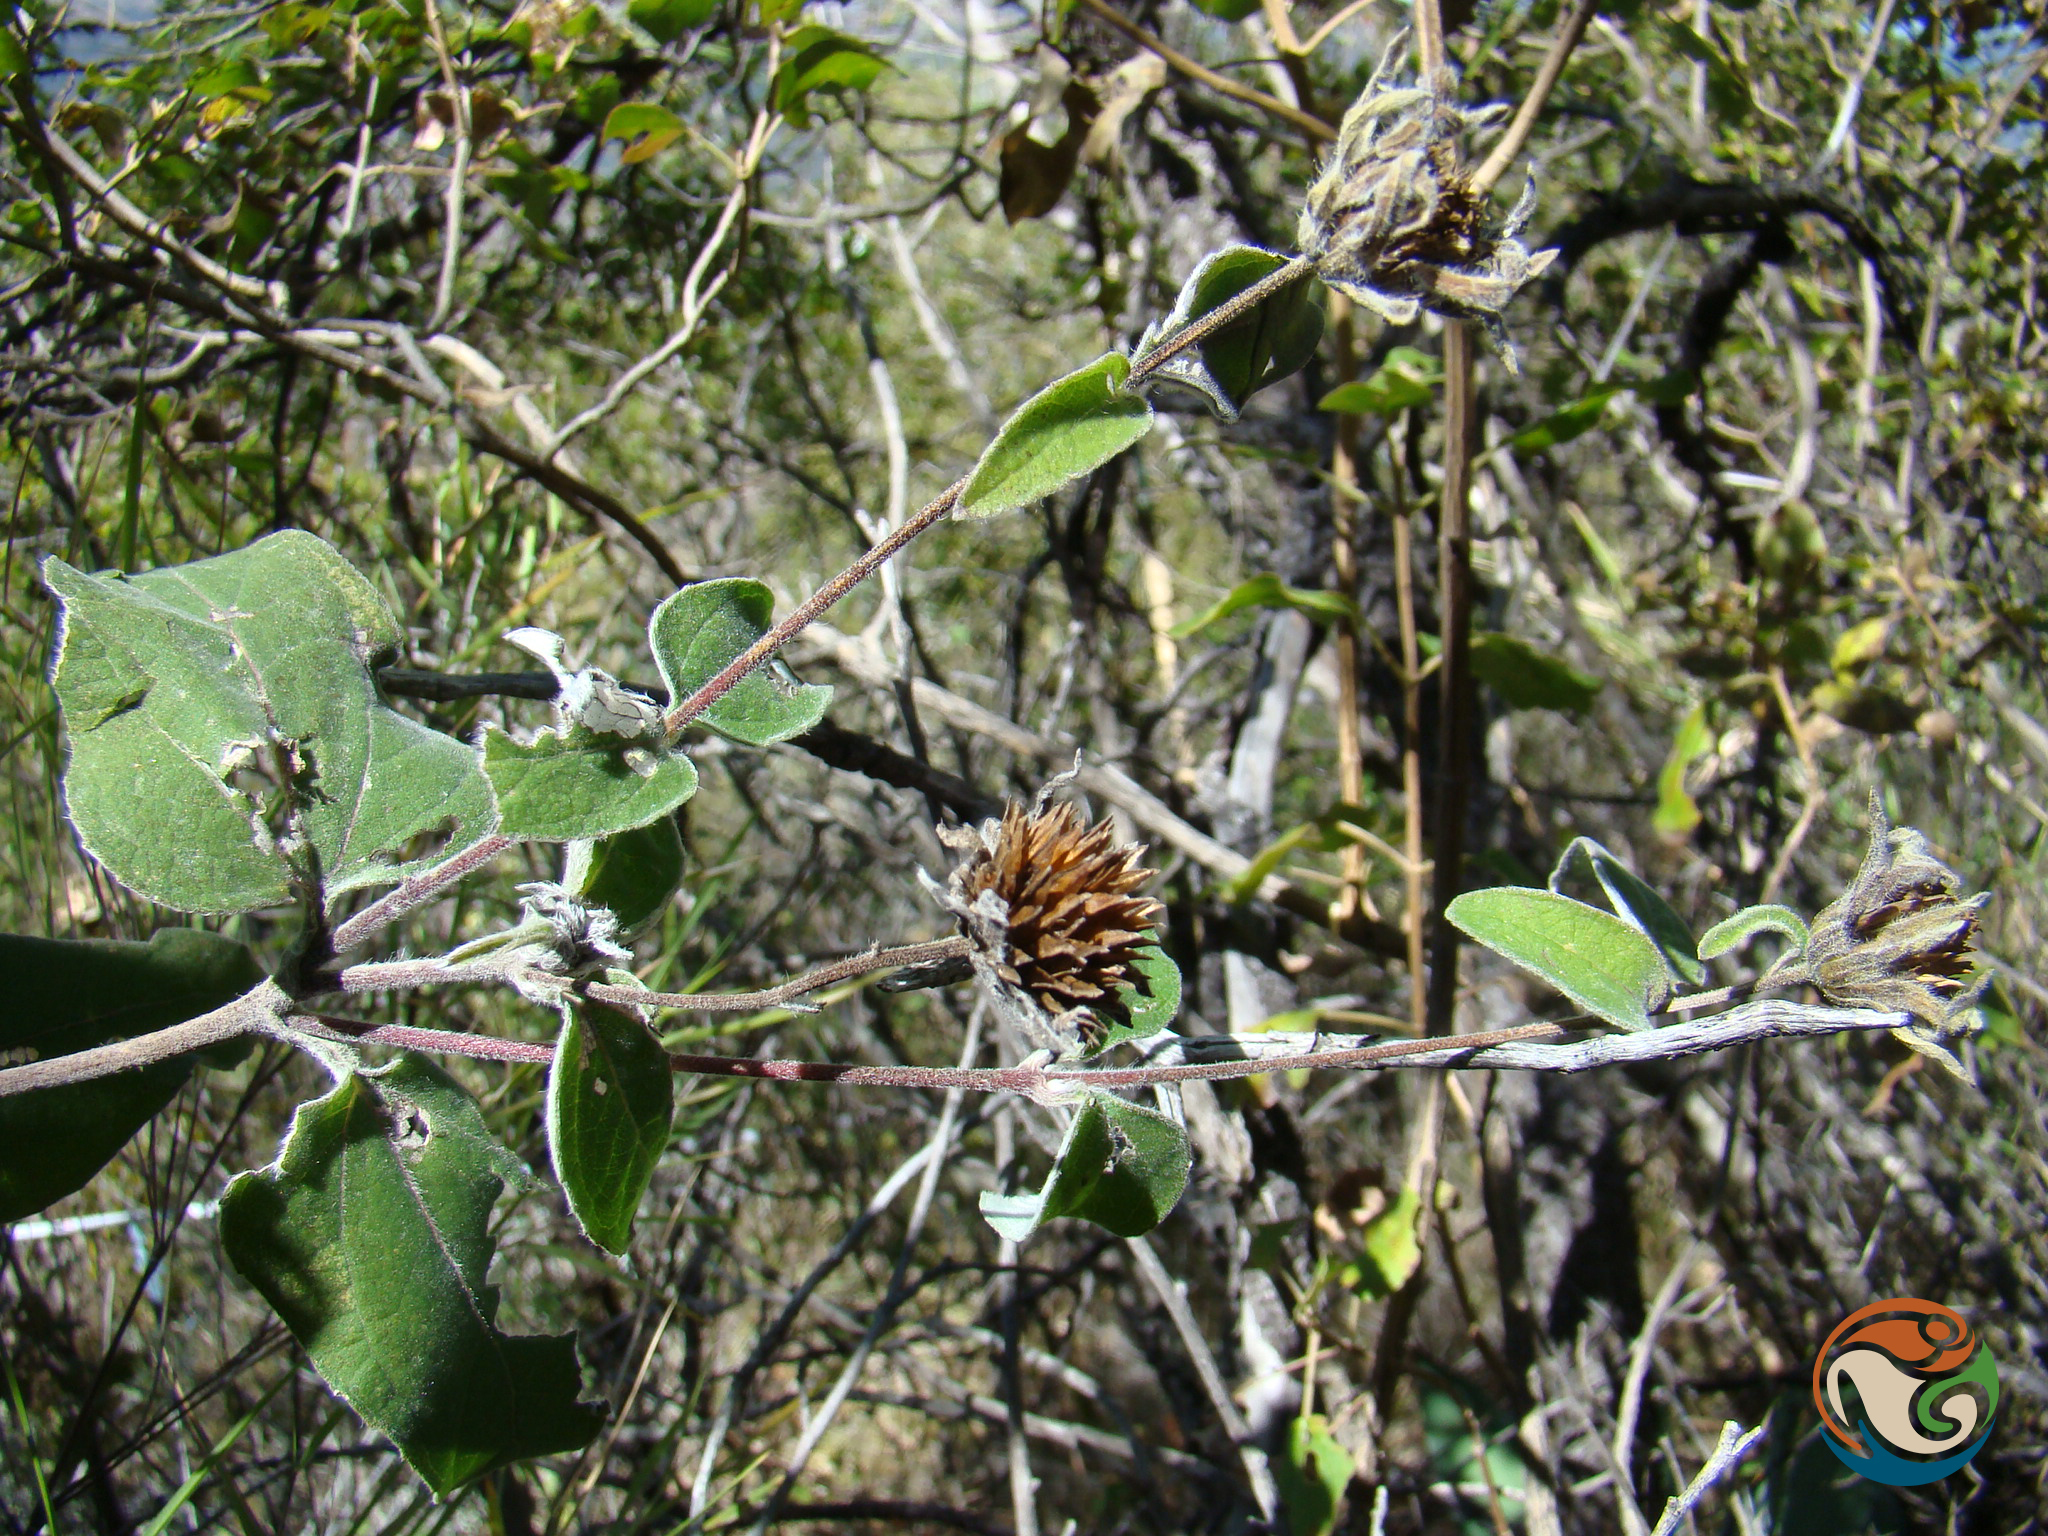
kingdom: Plantae
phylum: Tracheophyta
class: Magnoliopsida
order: Asterales
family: Asteraceae
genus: Viguiera
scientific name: Viguiera grammatoglossa
